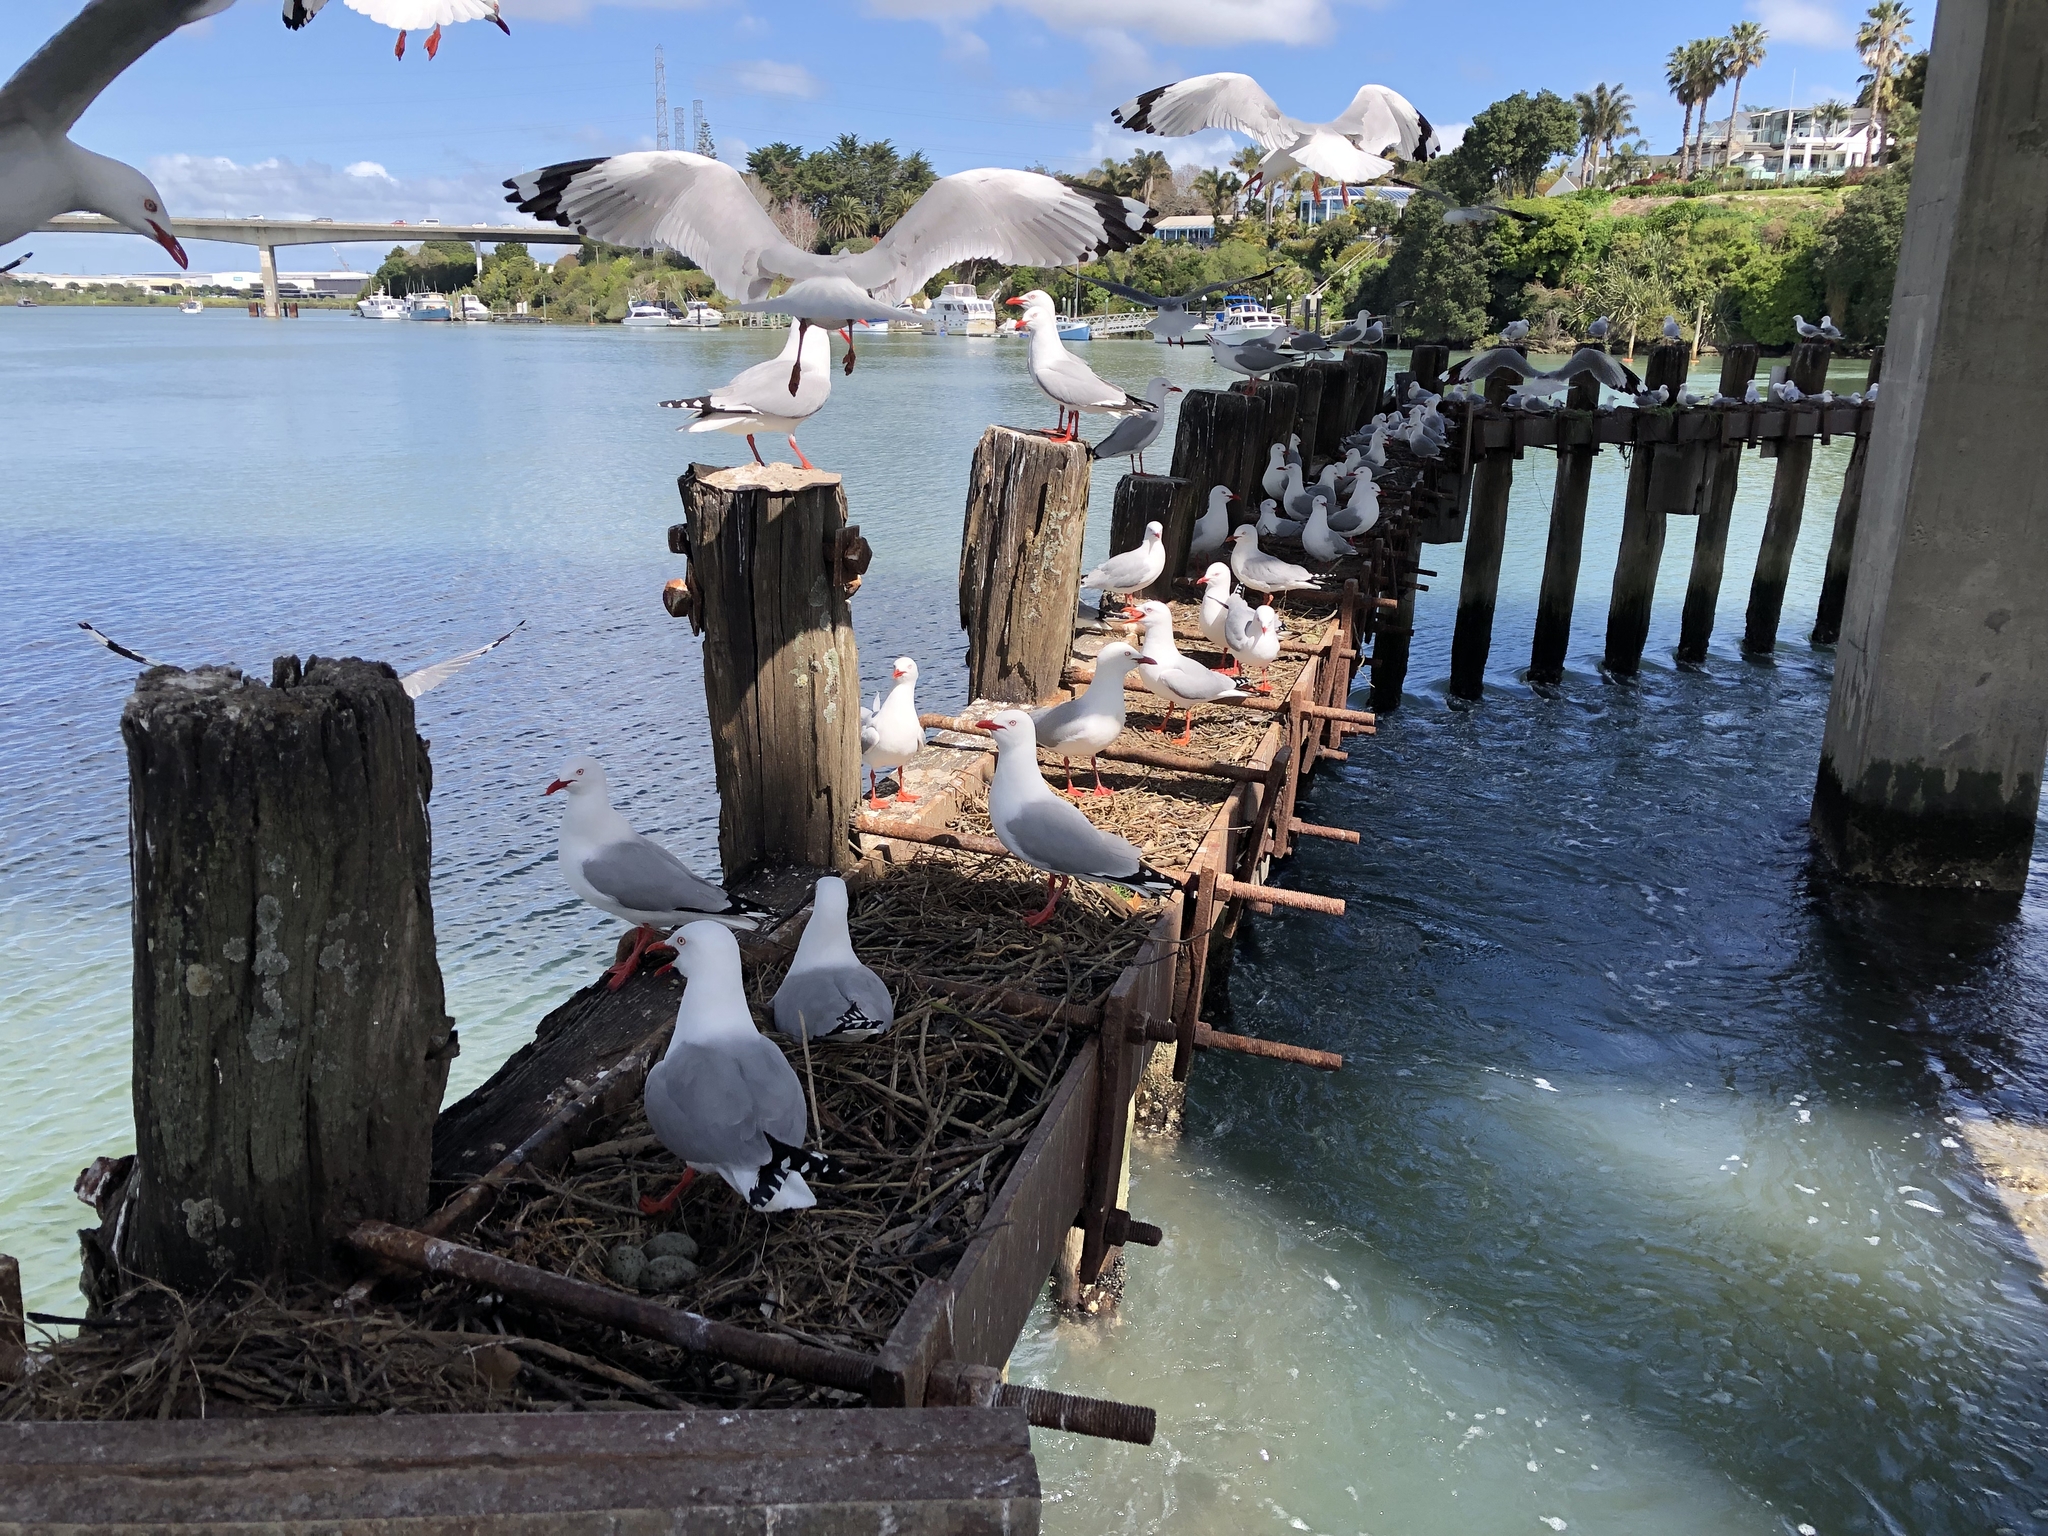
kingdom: Animalia
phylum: Chordata
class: Aves
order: Charadriiformes
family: Laridae
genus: Chroicocephalus
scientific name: Chroicocephalus novaehollandiae
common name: Silver gull
